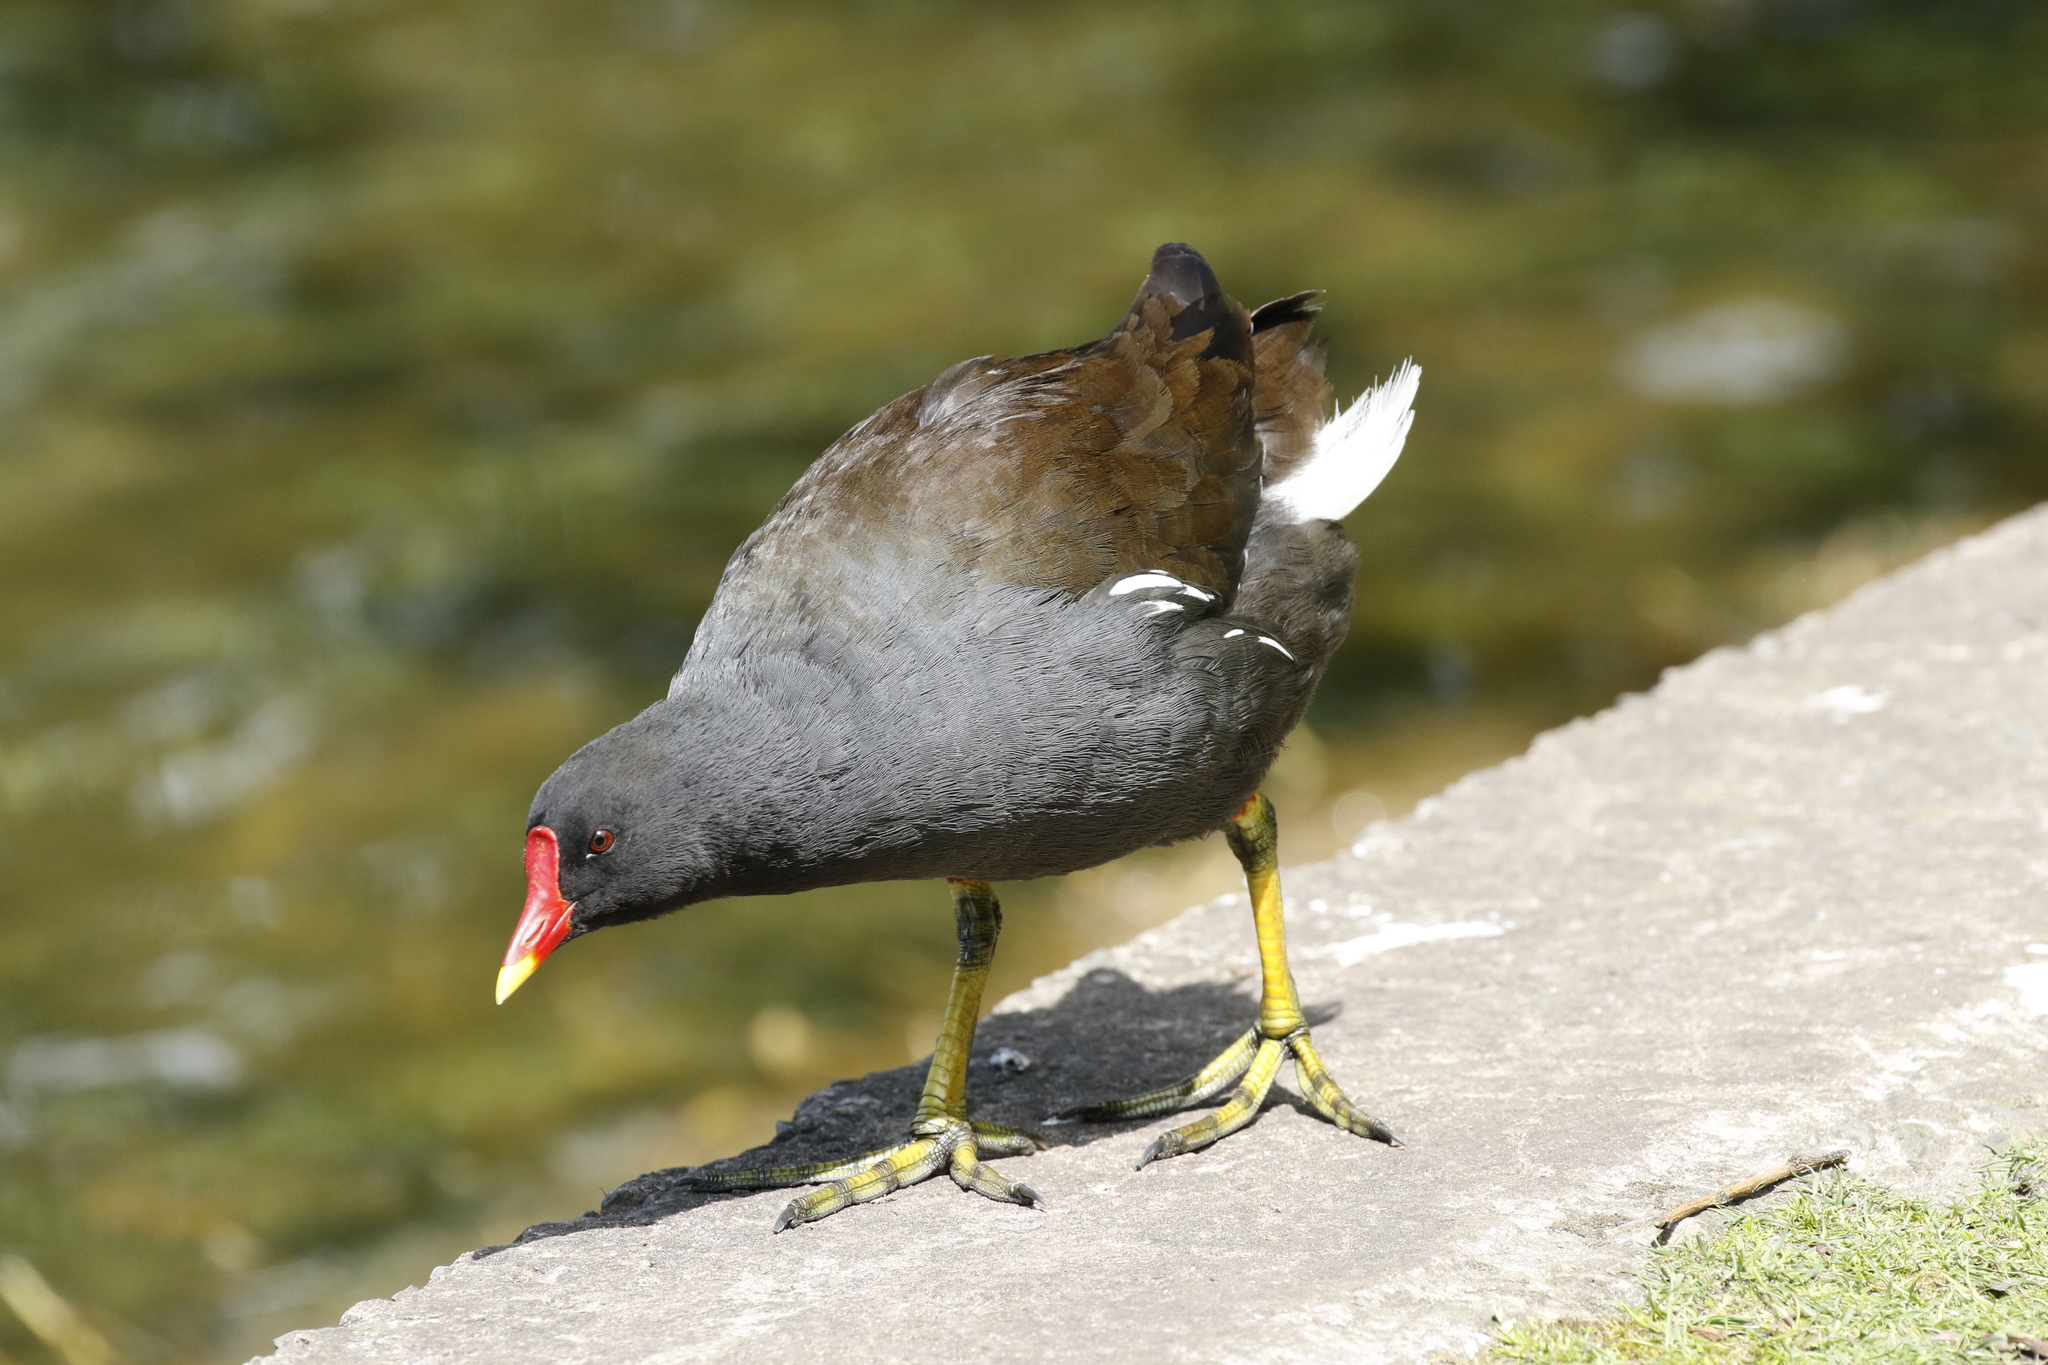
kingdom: Animalia
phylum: Chordata
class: Aves
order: Gruiformes
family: Rallidae
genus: Gallinula
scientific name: Gallinula chloropus
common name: Common moorhen
